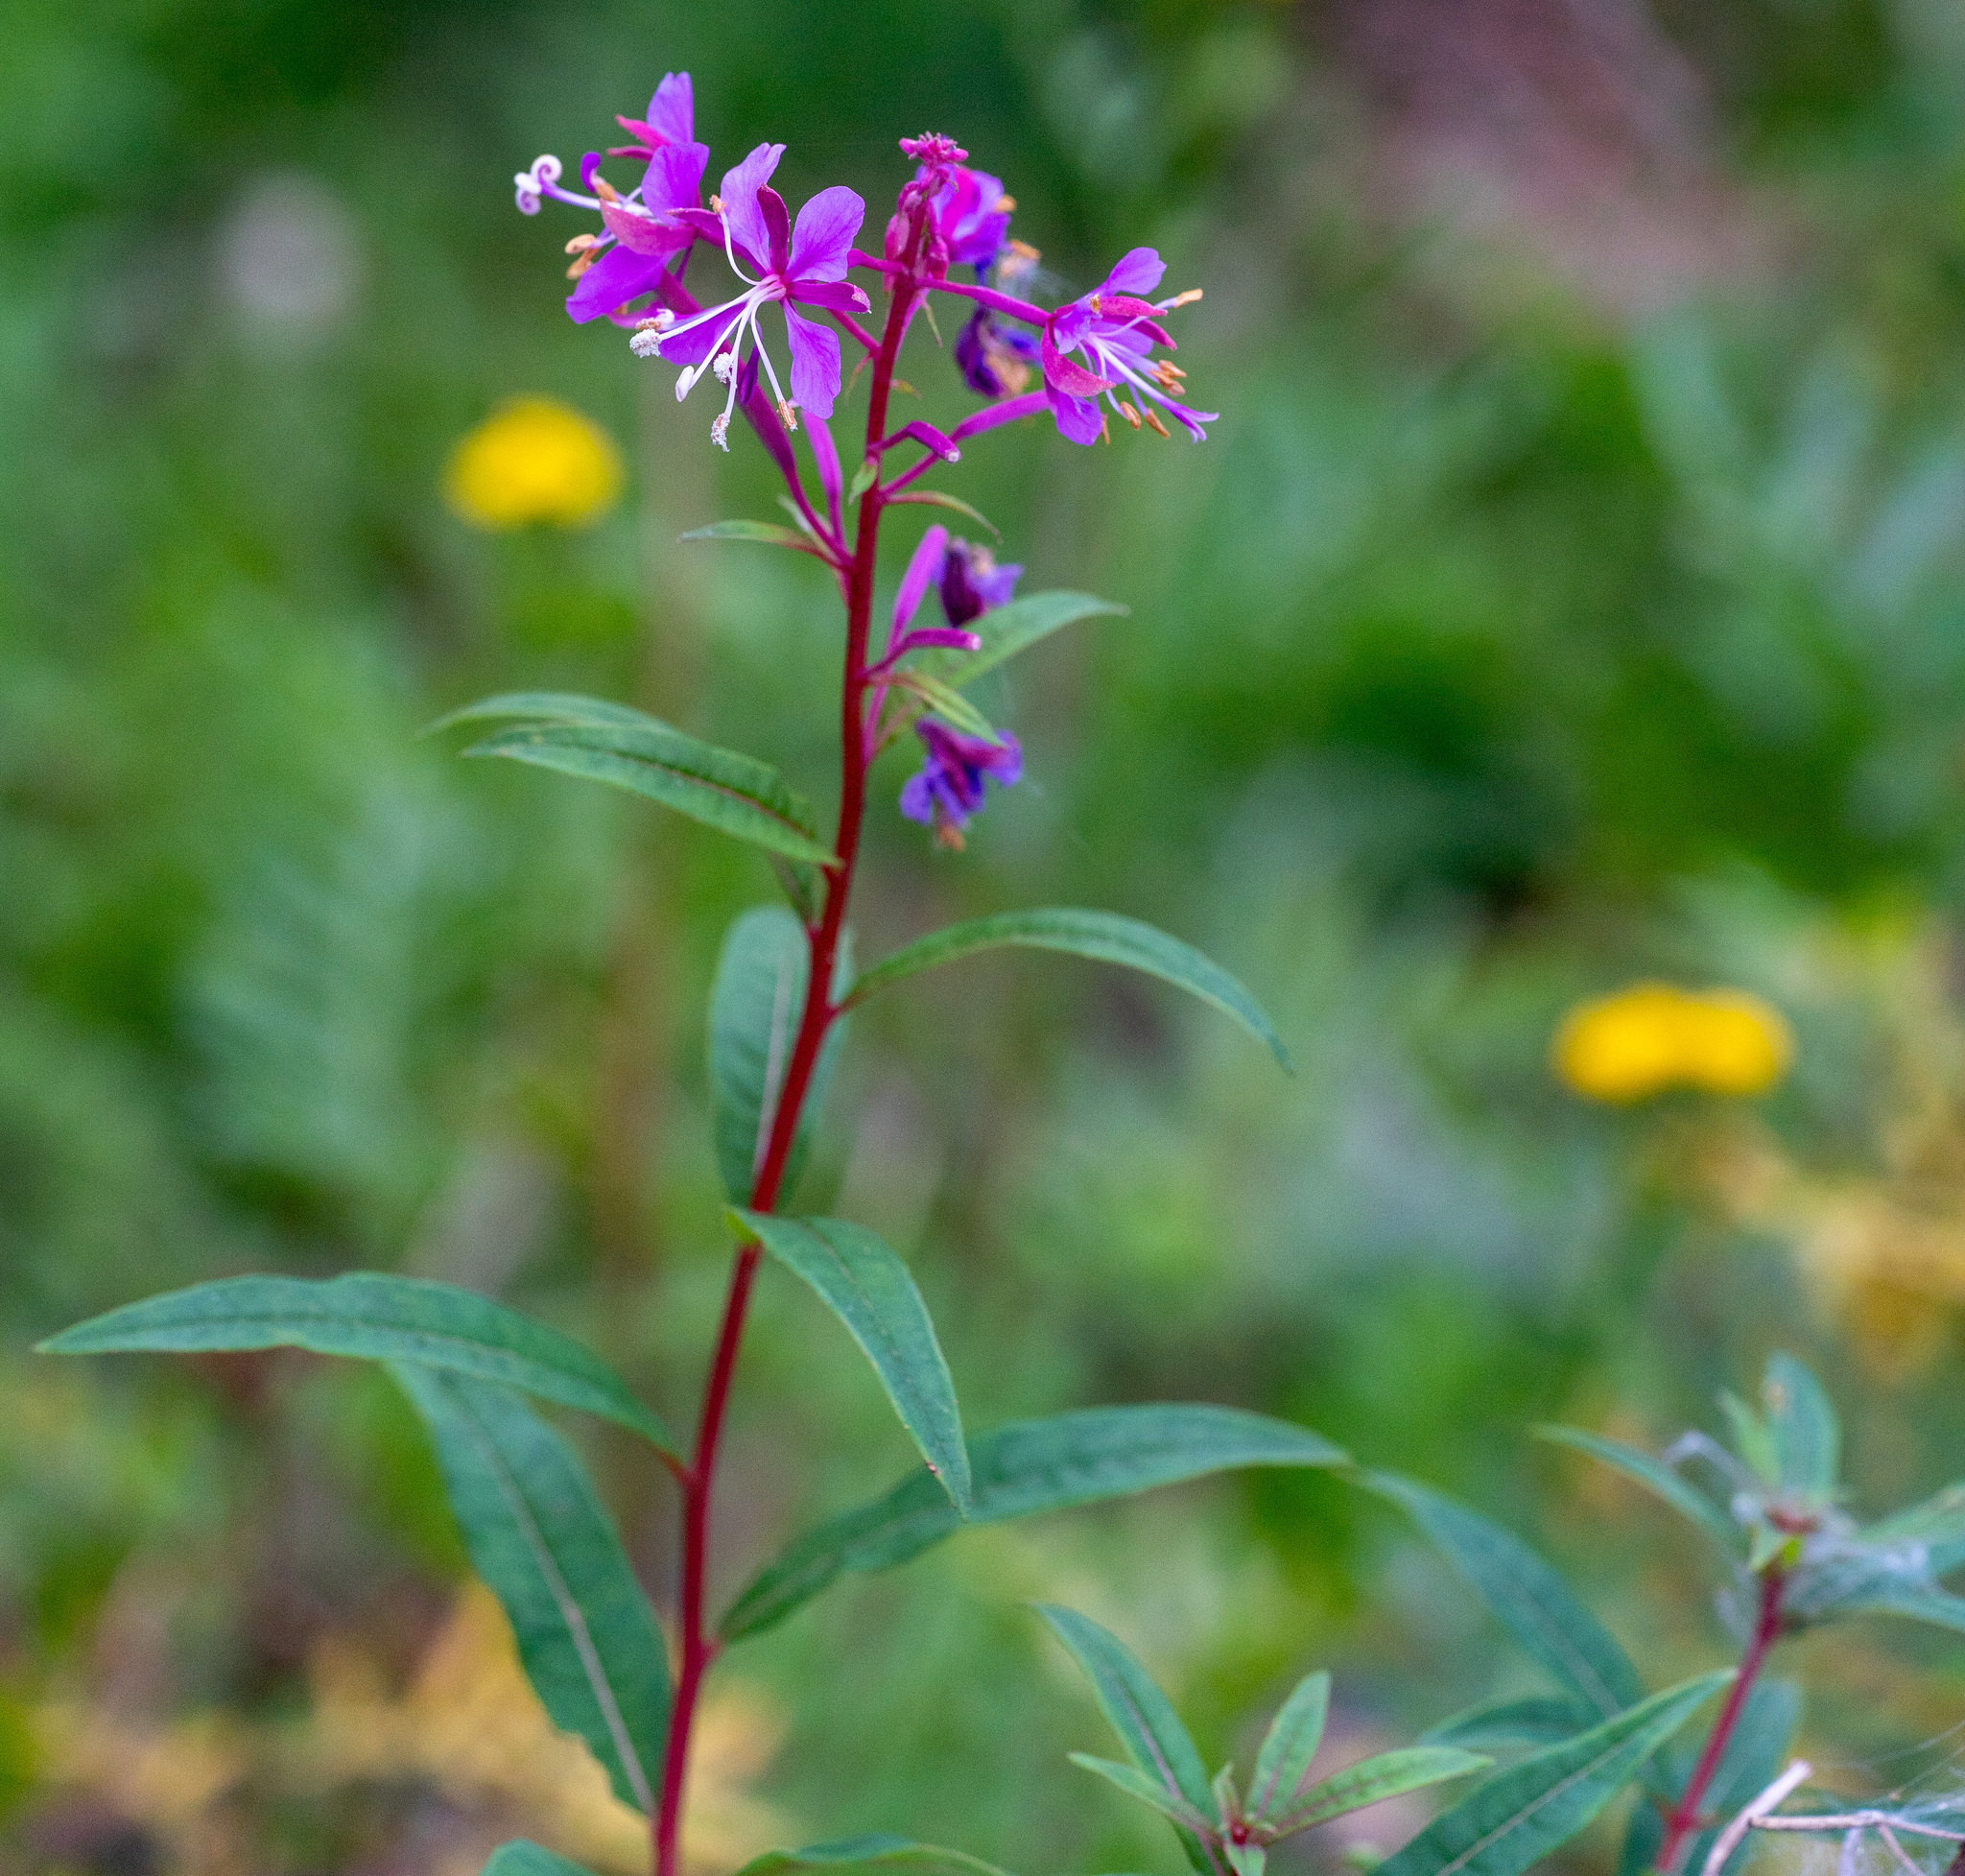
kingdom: Plantae
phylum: Tracheophyta
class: Magnoliopsida
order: Myrtales
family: Onagraceae
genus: Chamaenerion
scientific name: Chamaenerion angustifolium
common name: Fireweed
